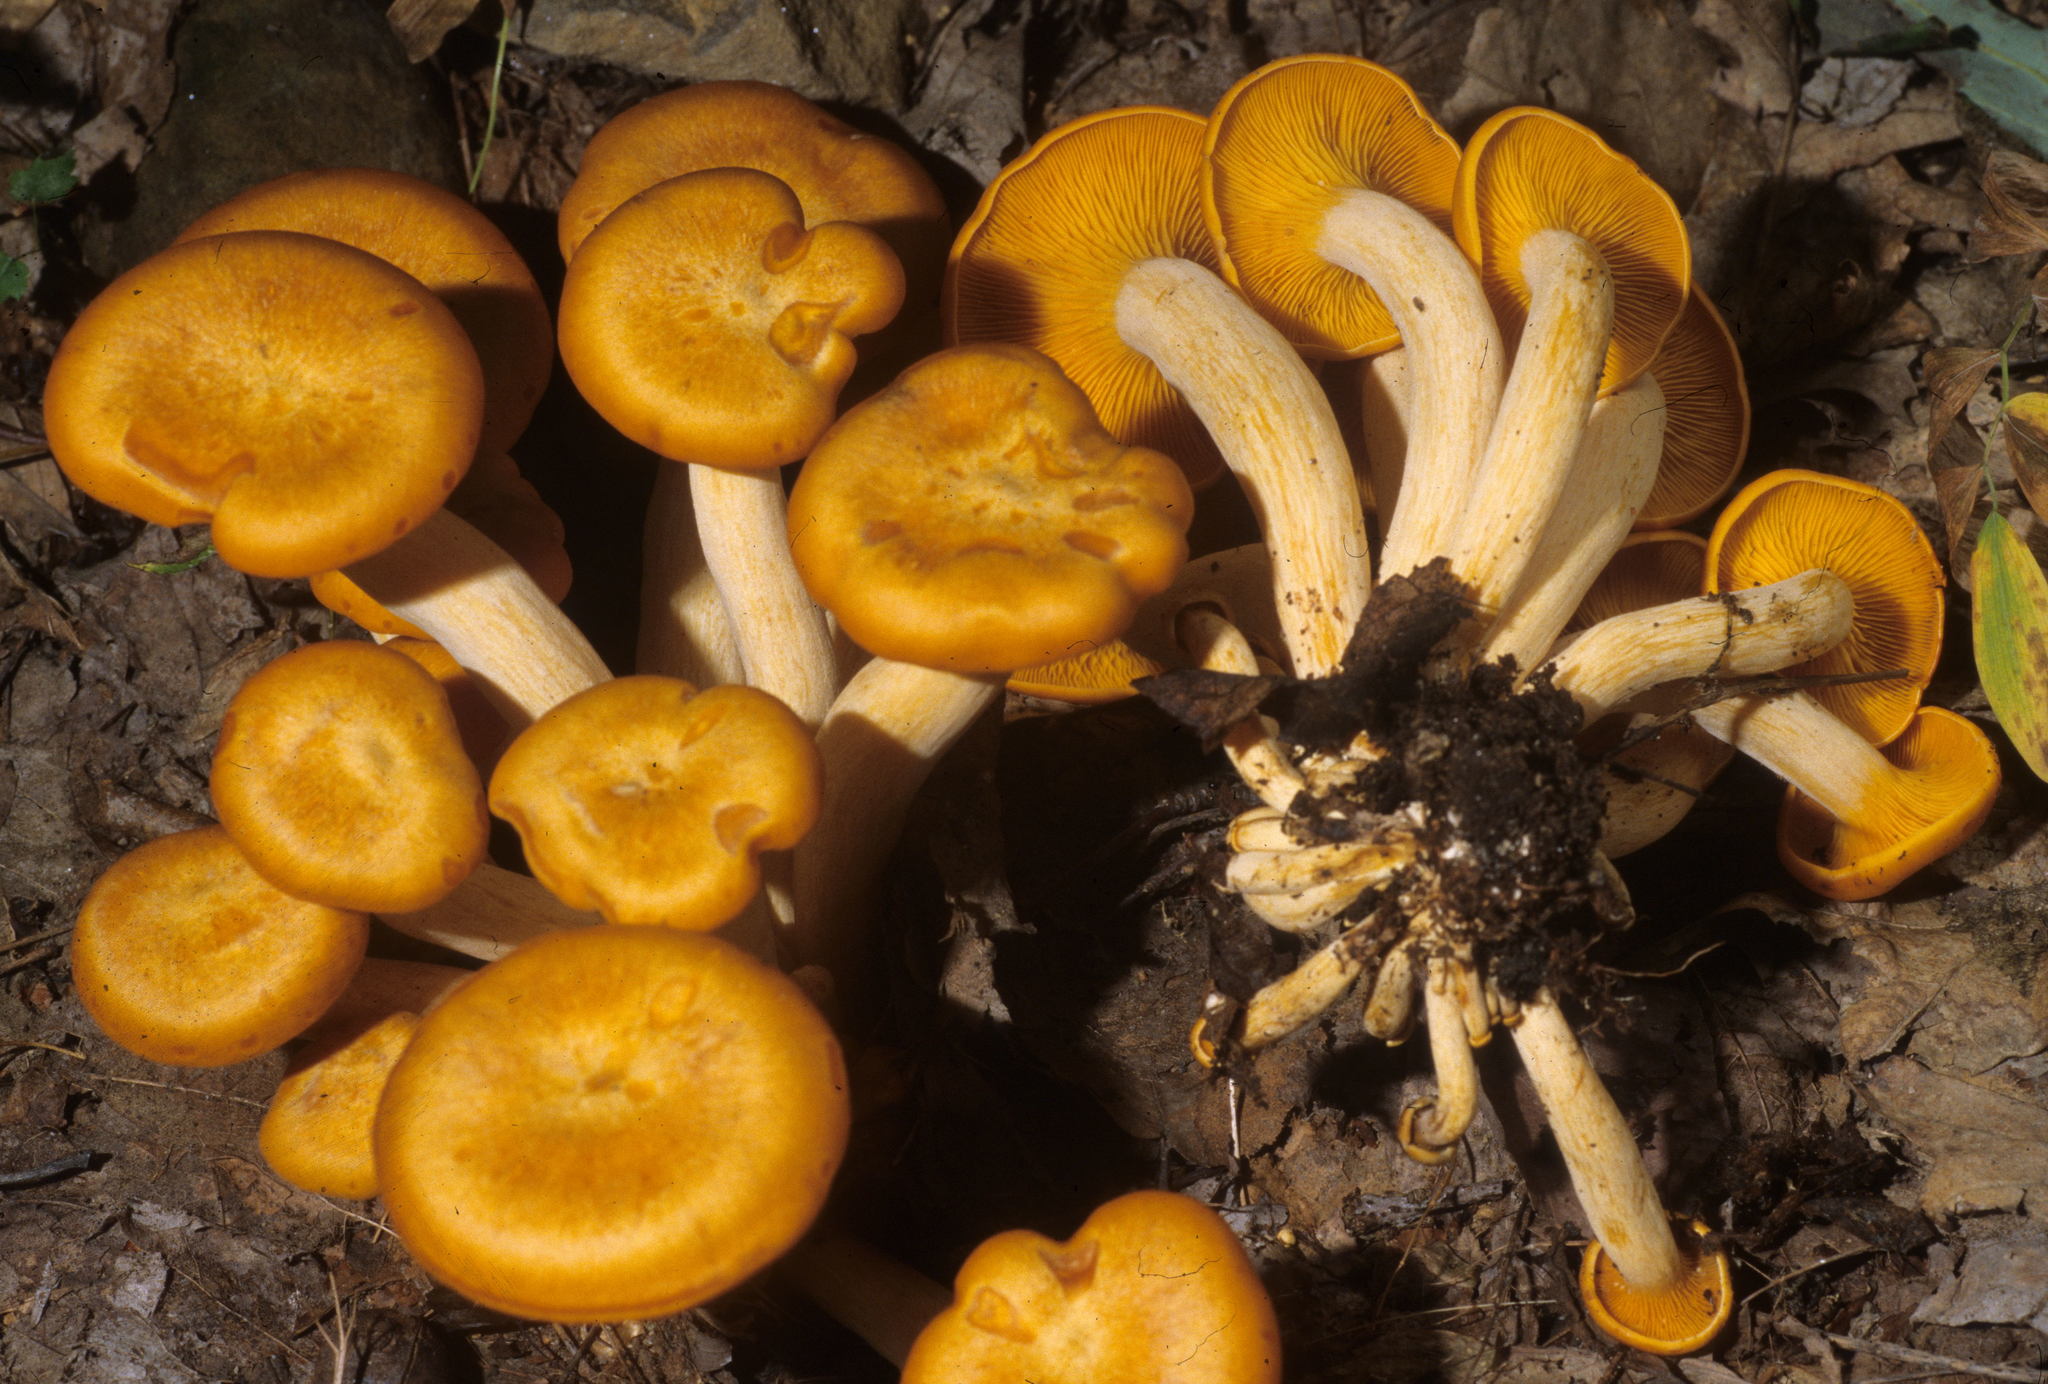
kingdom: Fungi
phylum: Basidiomycota
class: Agaricomycetes
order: Agaricales
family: Omphalotaceae
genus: Omphalotus
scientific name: Omphalotus illudens
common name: Jack o lantern
